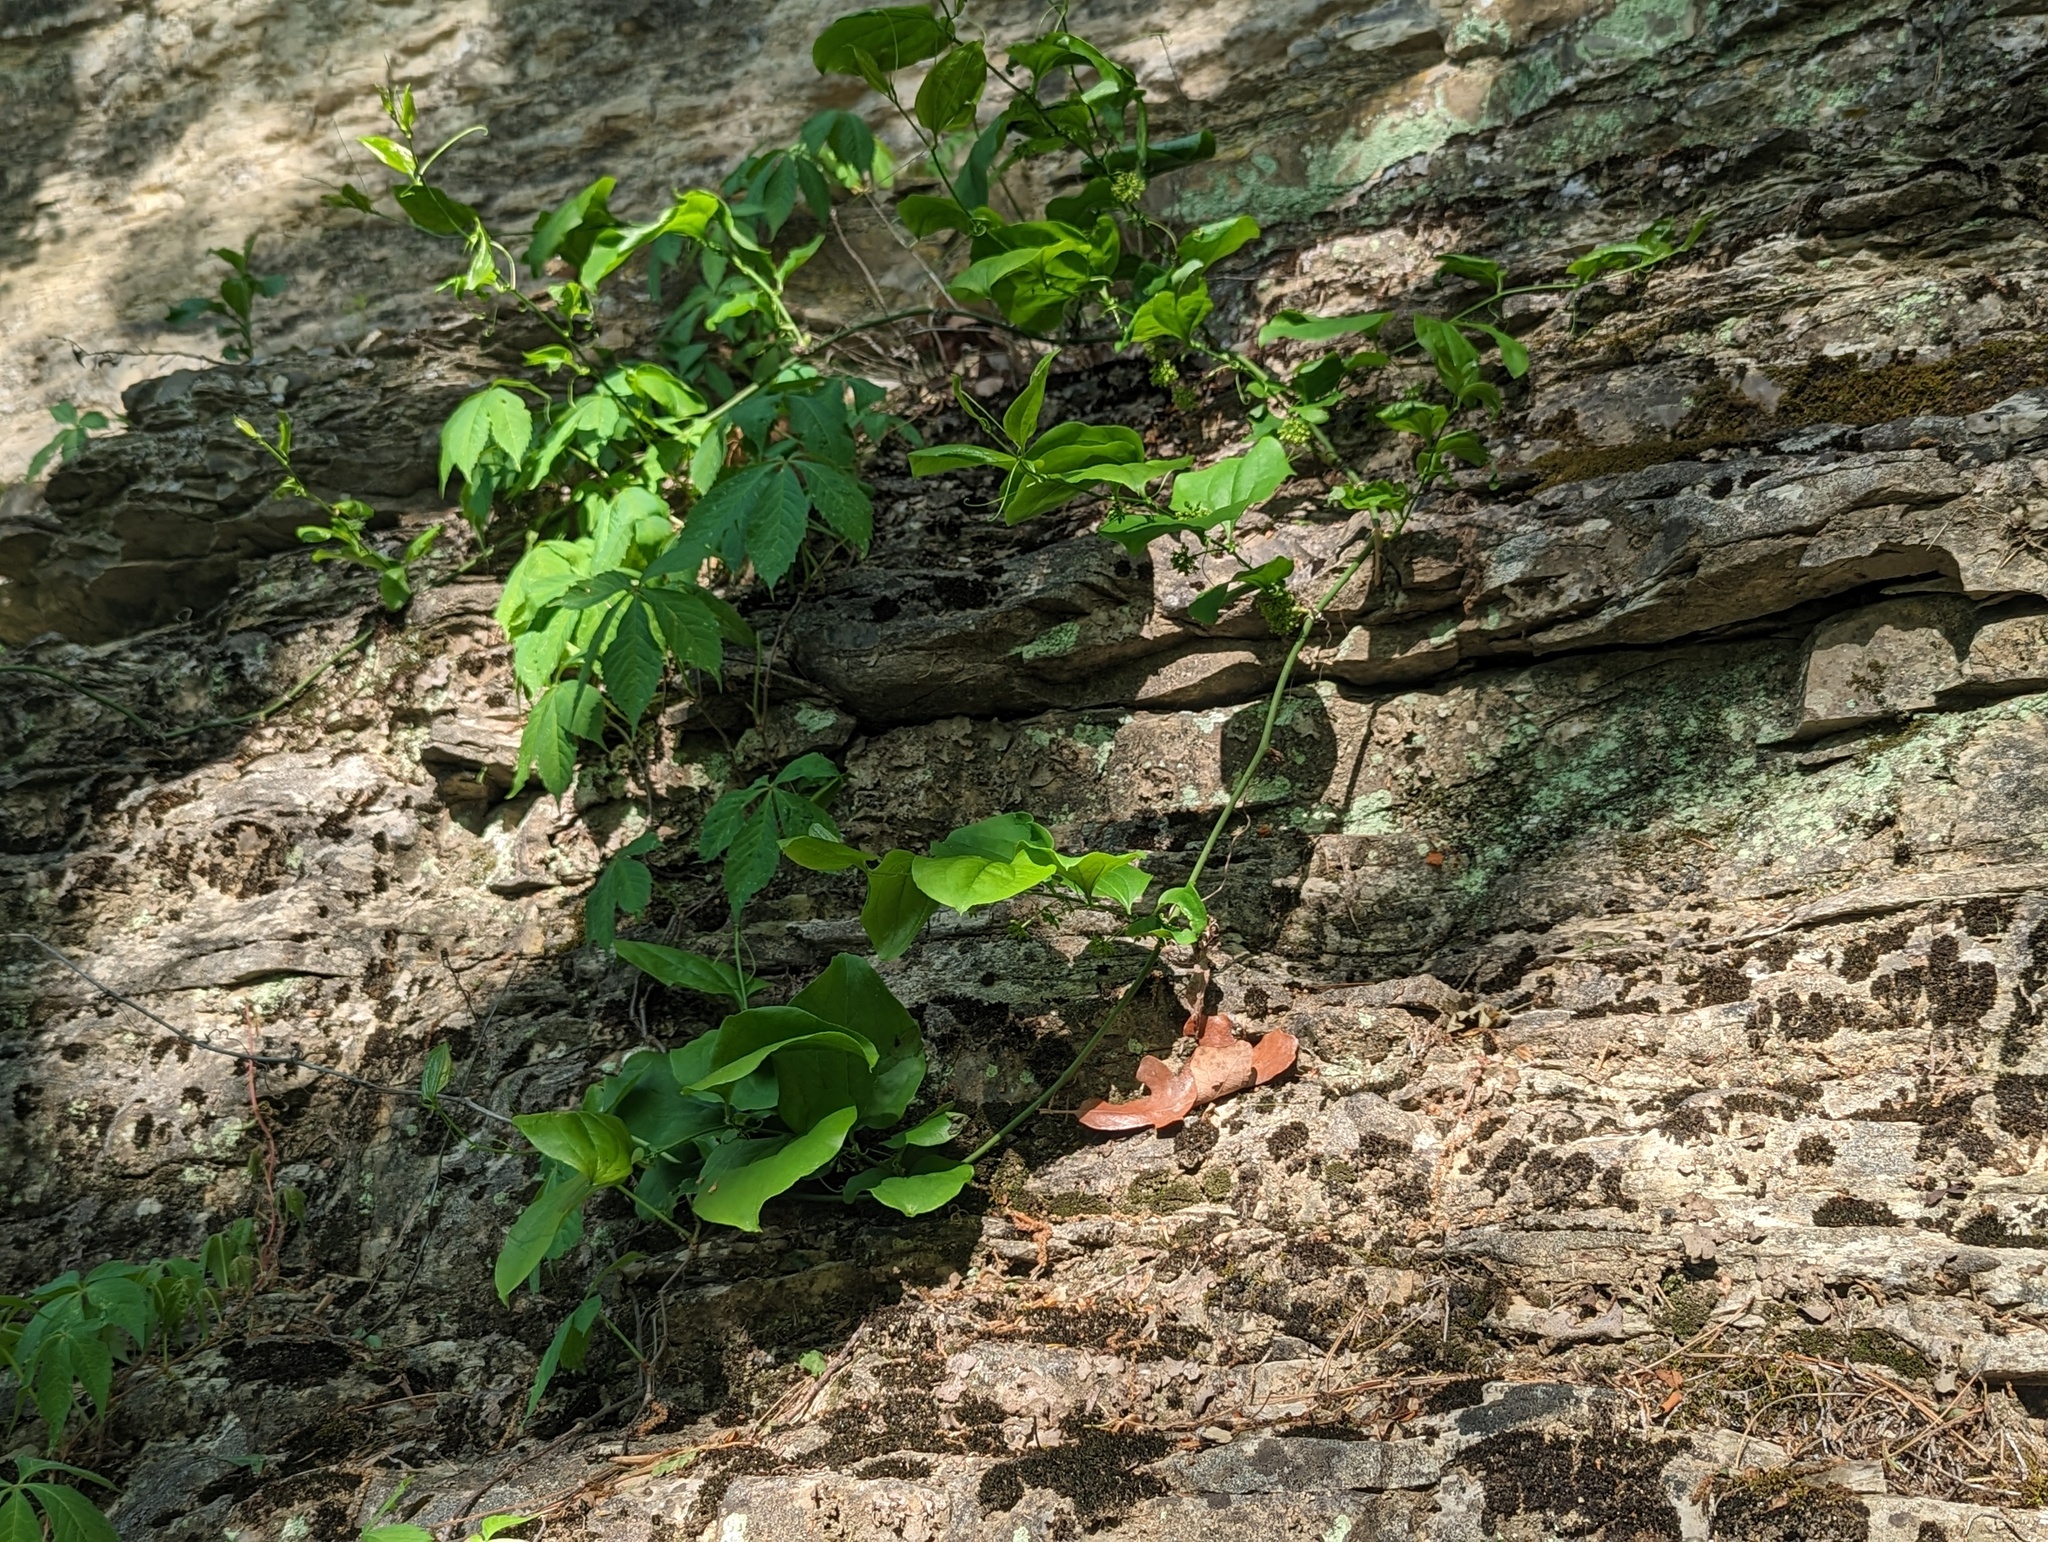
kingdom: Plantae
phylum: Tracheophyta
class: Liliopsida
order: Liliales
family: Smilacaceae
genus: Smilax
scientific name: Smilax tamnoides
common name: Hellfetter
